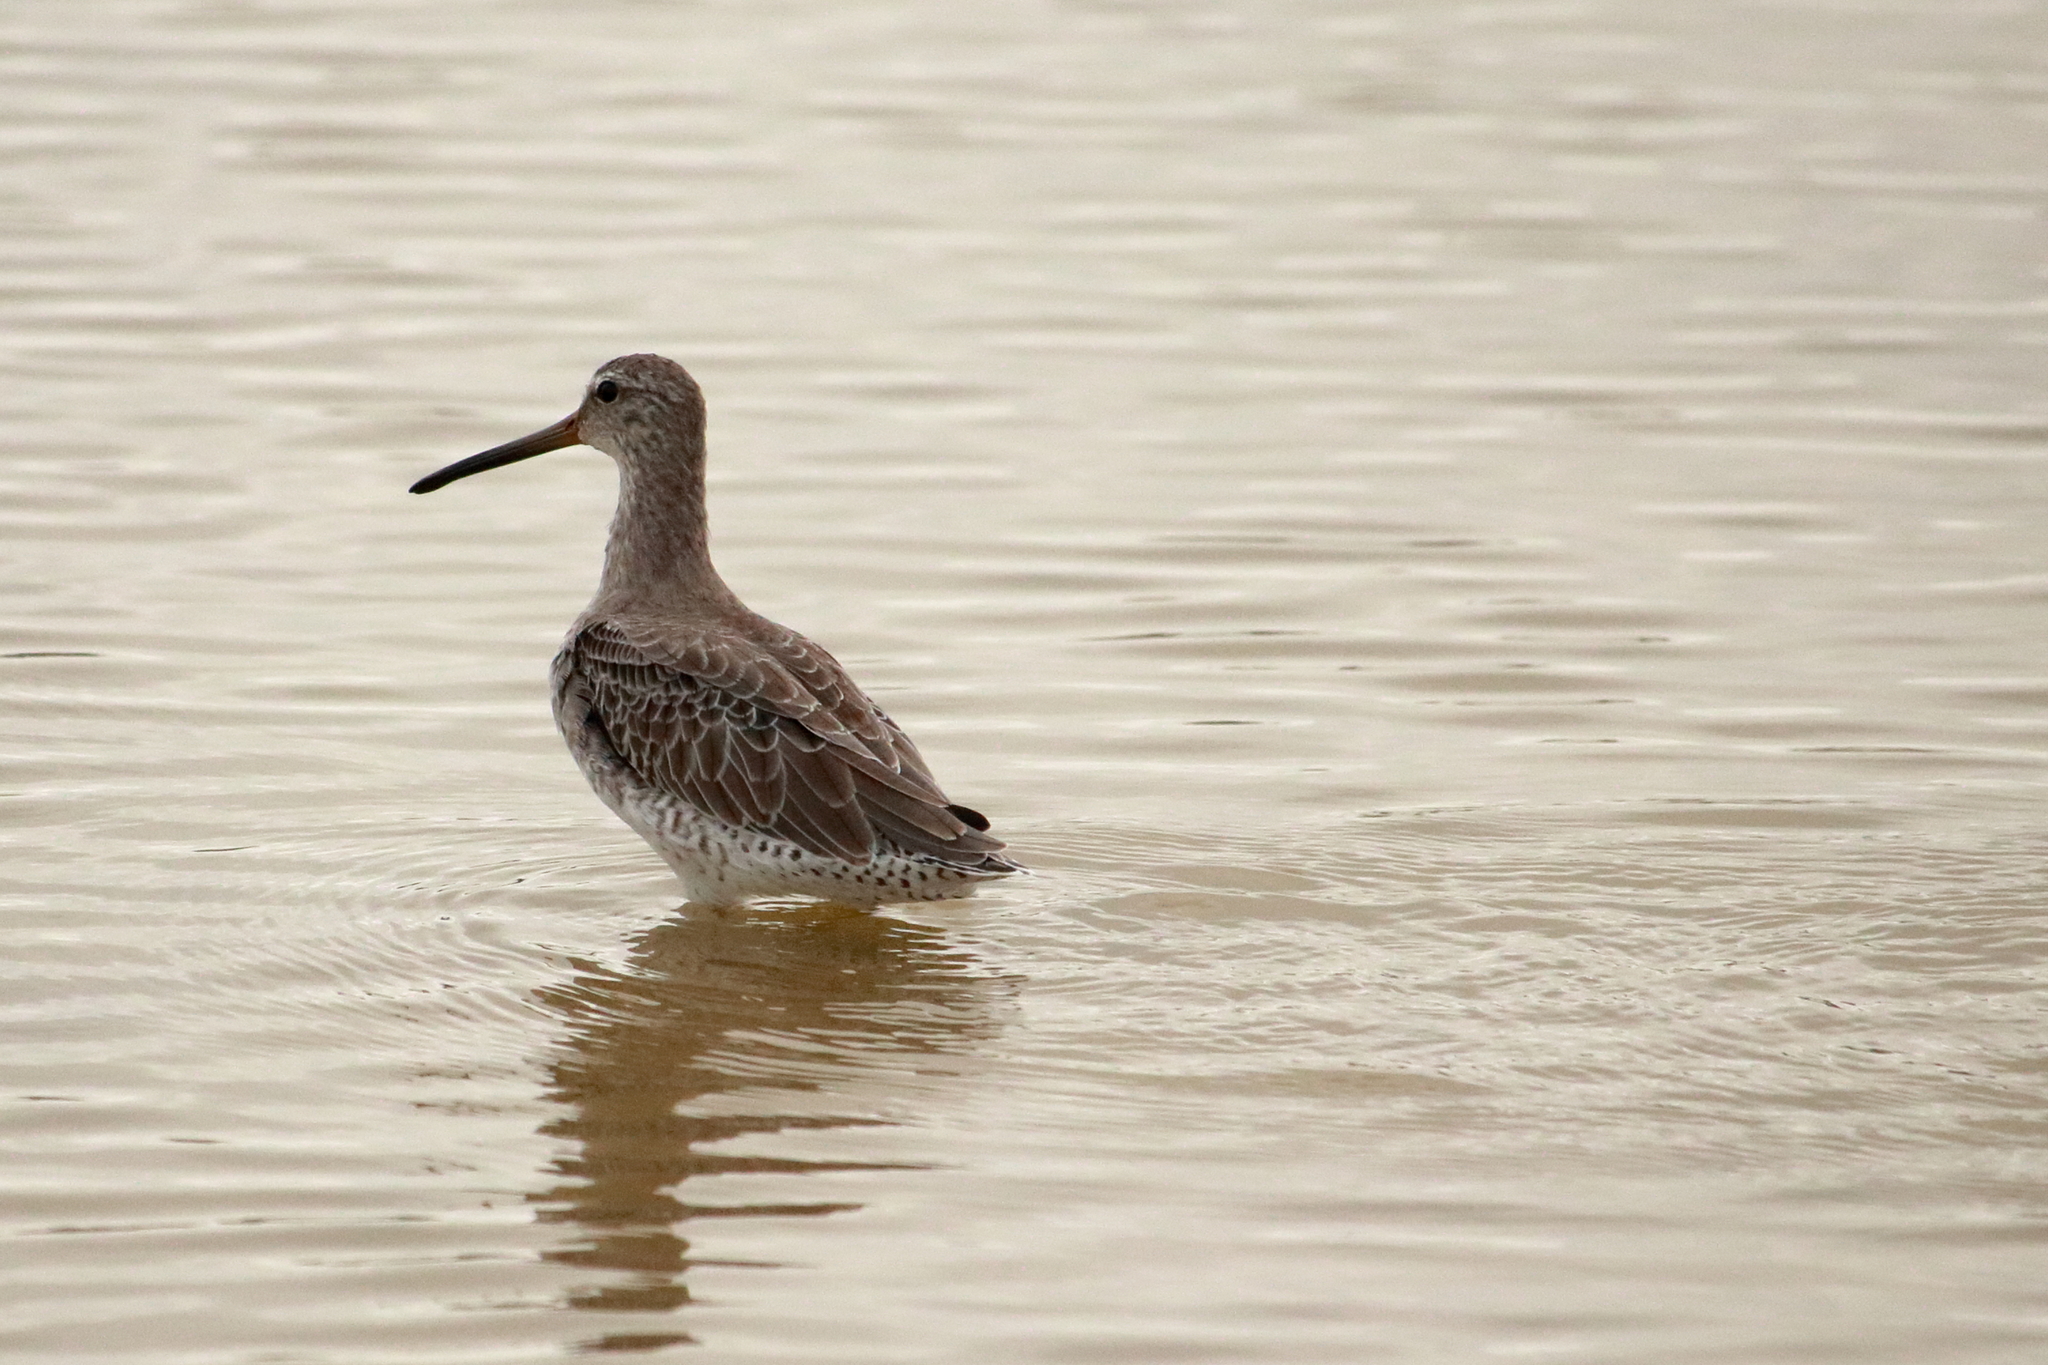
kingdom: Animalia
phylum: Chordata
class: Aves
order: Charadriiformes
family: Scolopacidae
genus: Limnodromus
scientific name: Limnodromus griseus
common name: Short-billed dowitcher
